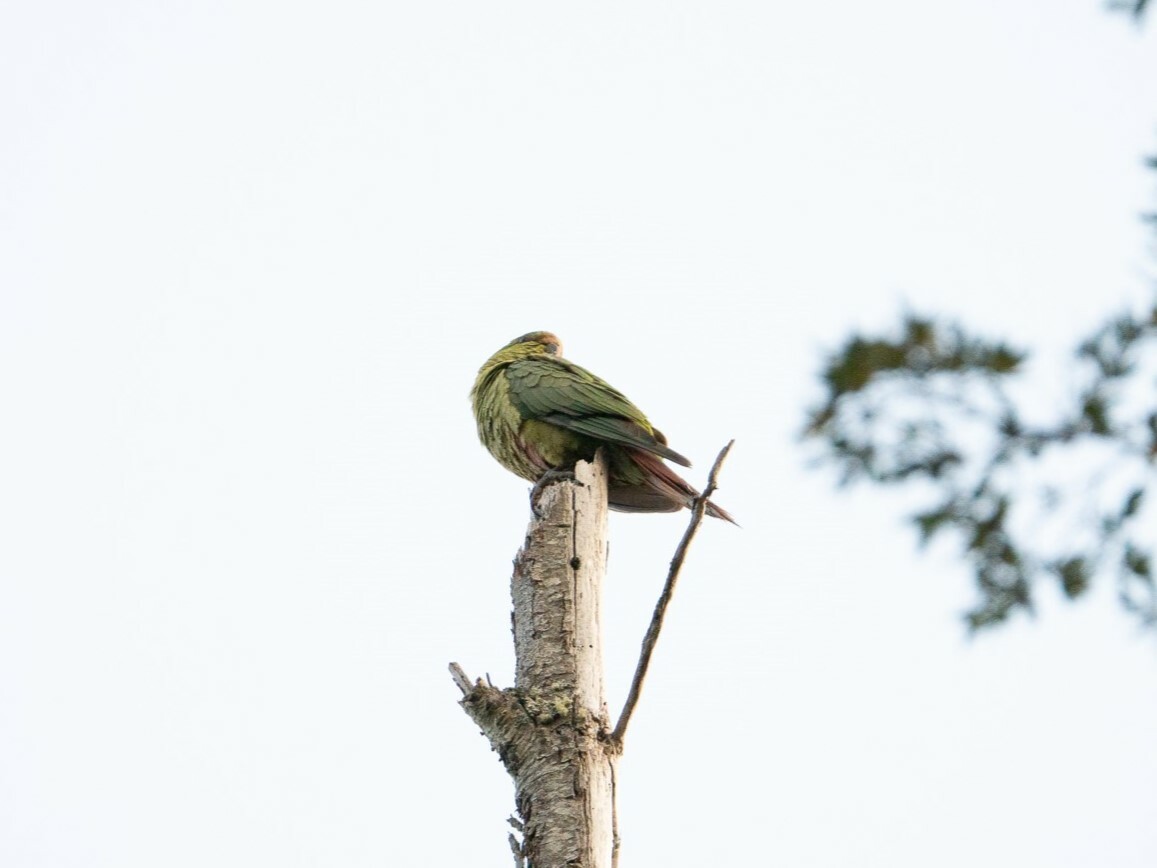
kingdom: Animalia
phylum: Chordata
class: Aves
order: Psittaciformes
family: Psittacidae
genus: Enicognathus
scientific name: Enicognathus ferrugineus
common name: Austral parakeet
